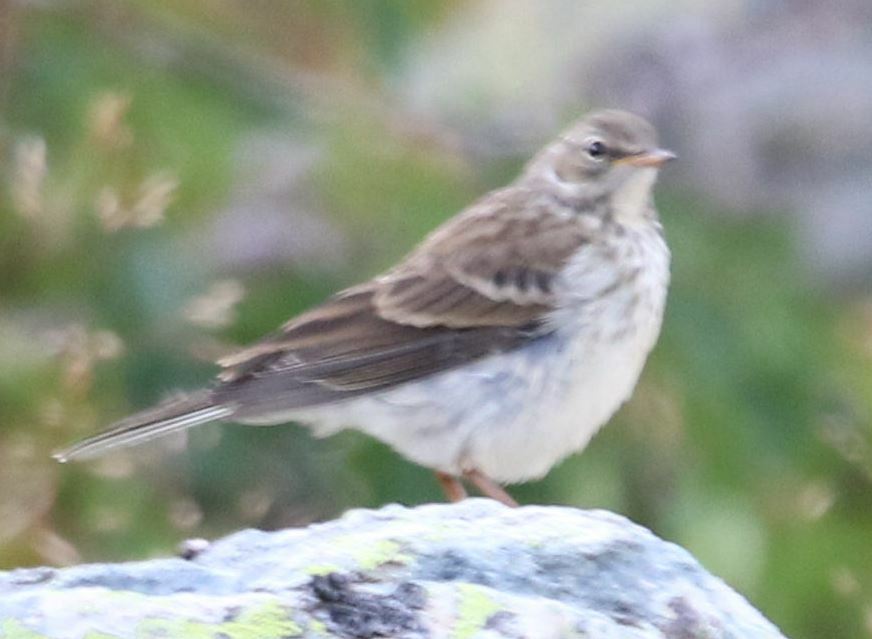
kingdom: Animalia
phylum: Chordata
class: Aves
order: Passeriformes
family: Motacillidae
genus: Anthus
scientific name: Anthus spinoletta
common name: Water pipit
